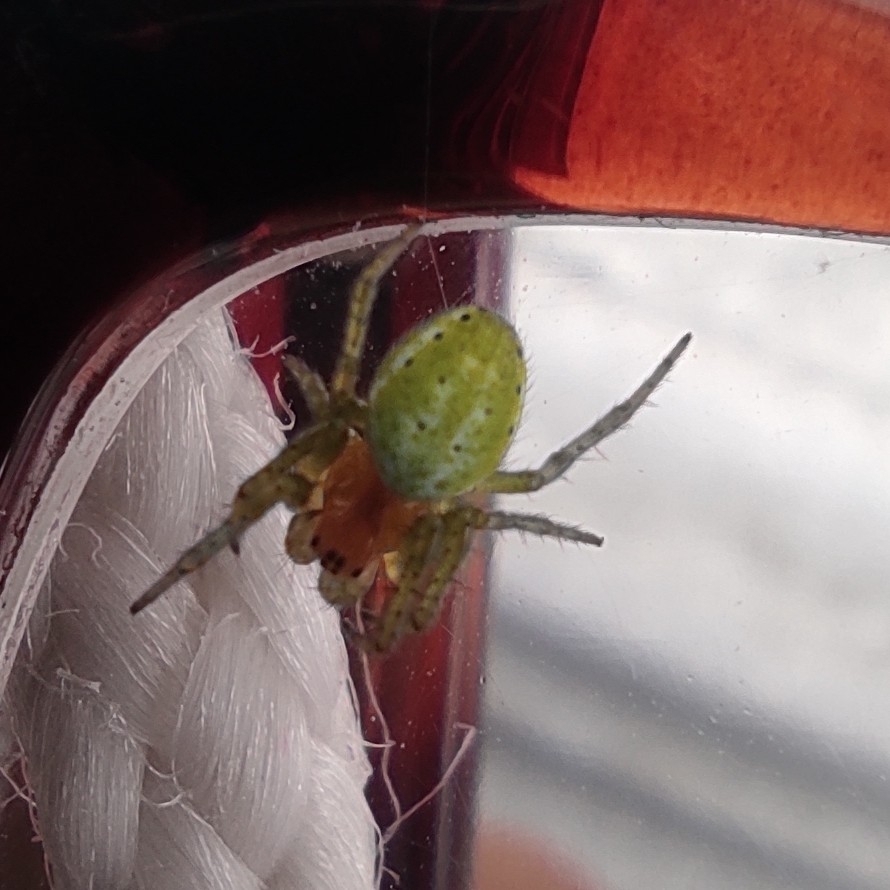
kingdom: Animalia
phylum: Arthropoda
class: Arachnida
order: Araneae
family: Araneidae
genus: Araniella
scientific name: Araniella cucurbitina
